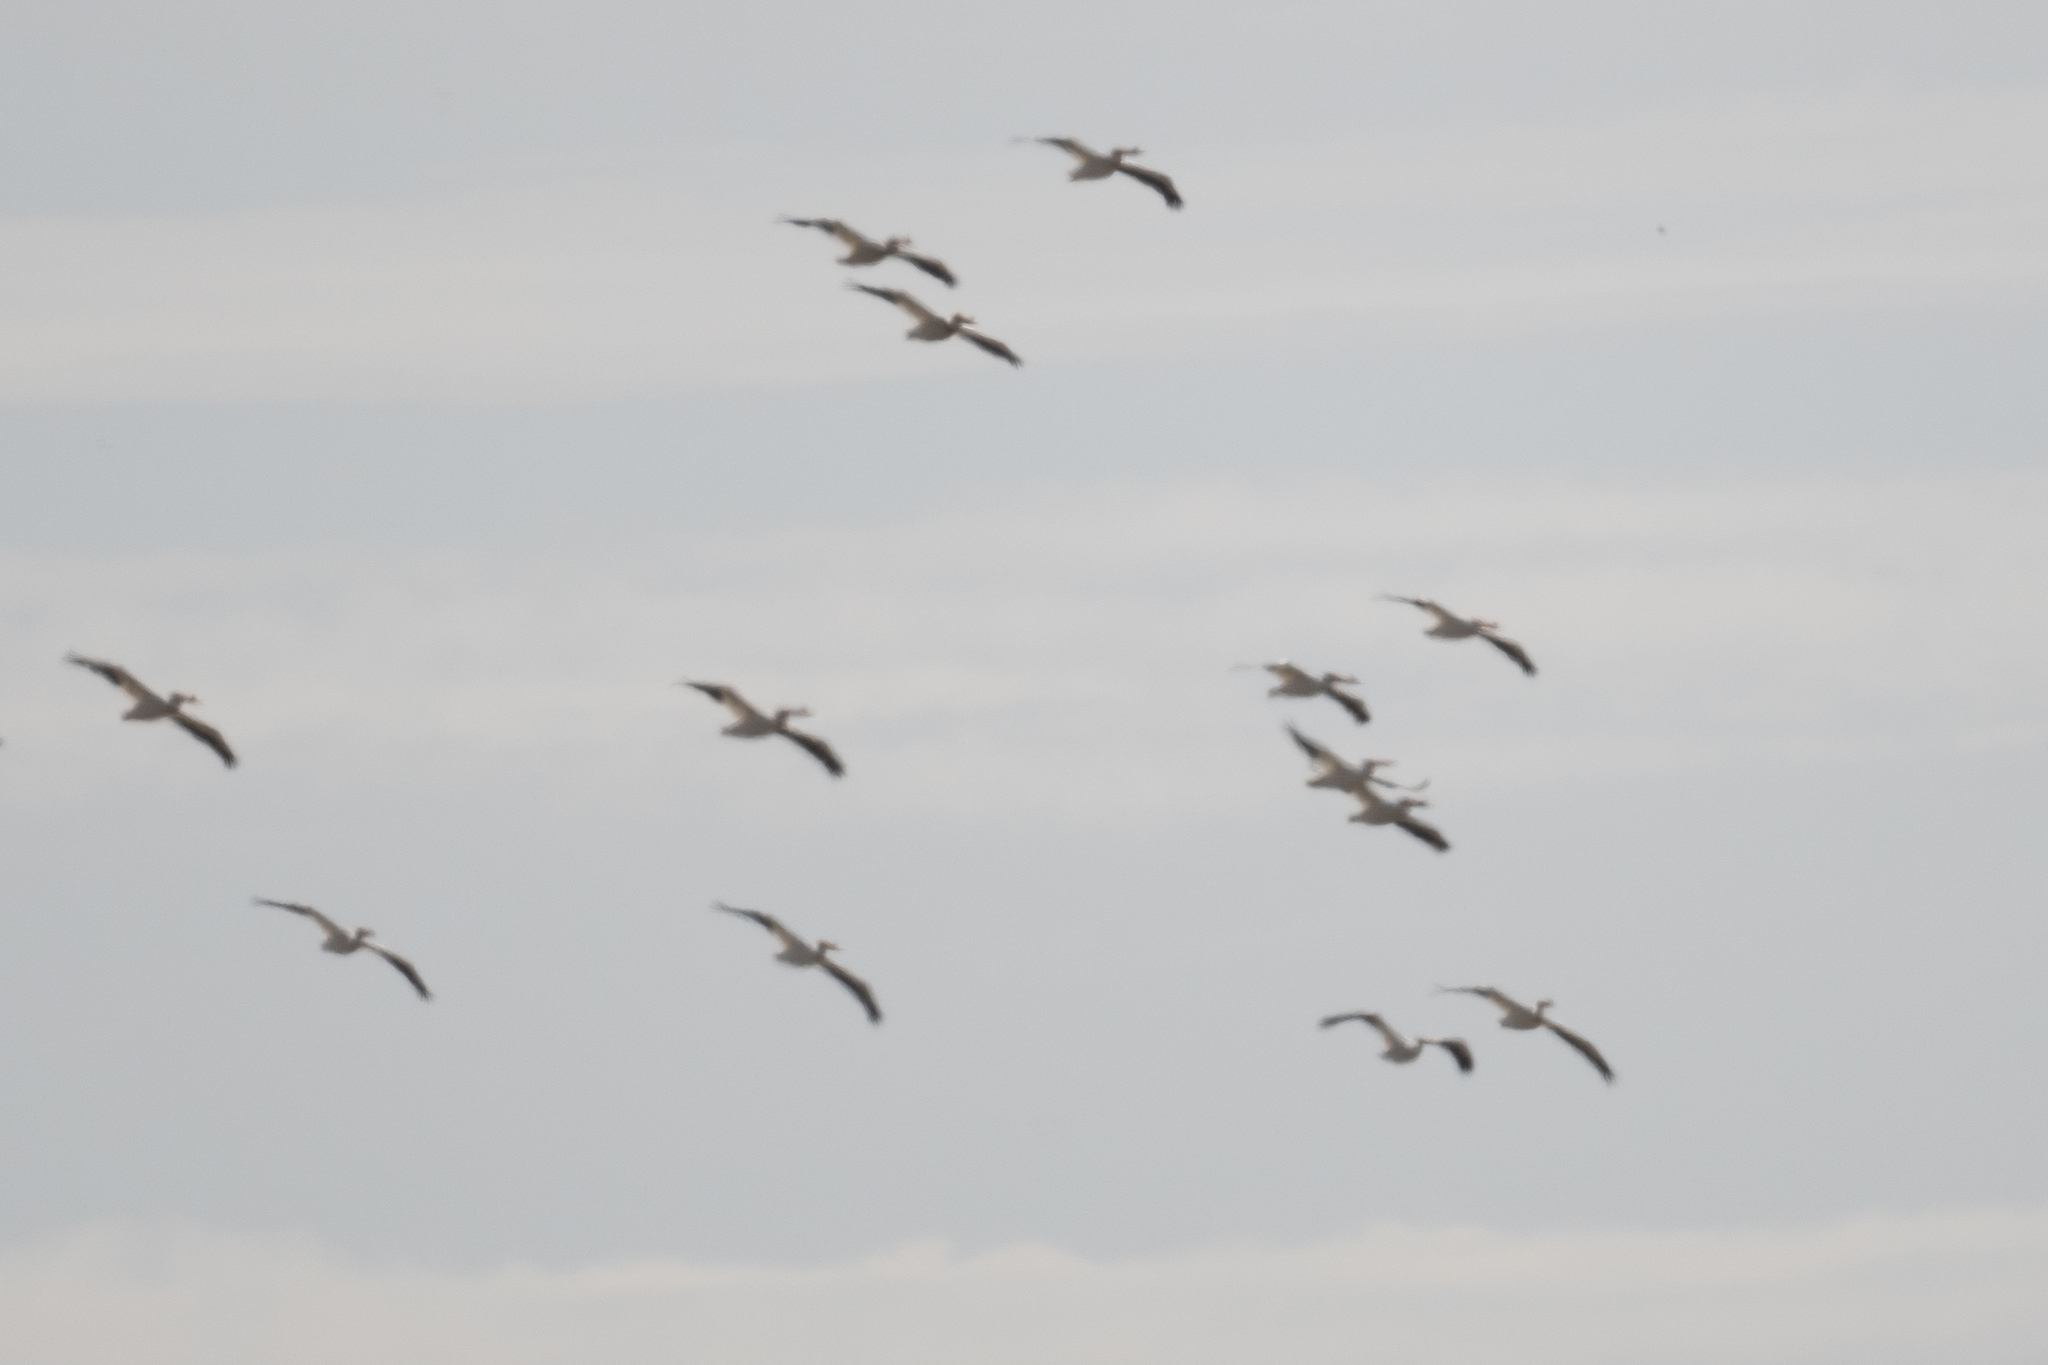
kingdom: Animalia
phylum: Chordata
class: Aves
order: Pelecaniformes
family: Pelecanidae
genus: Pelecanus
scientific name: Pelecanus erythrorhynchos
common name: American white pelican
